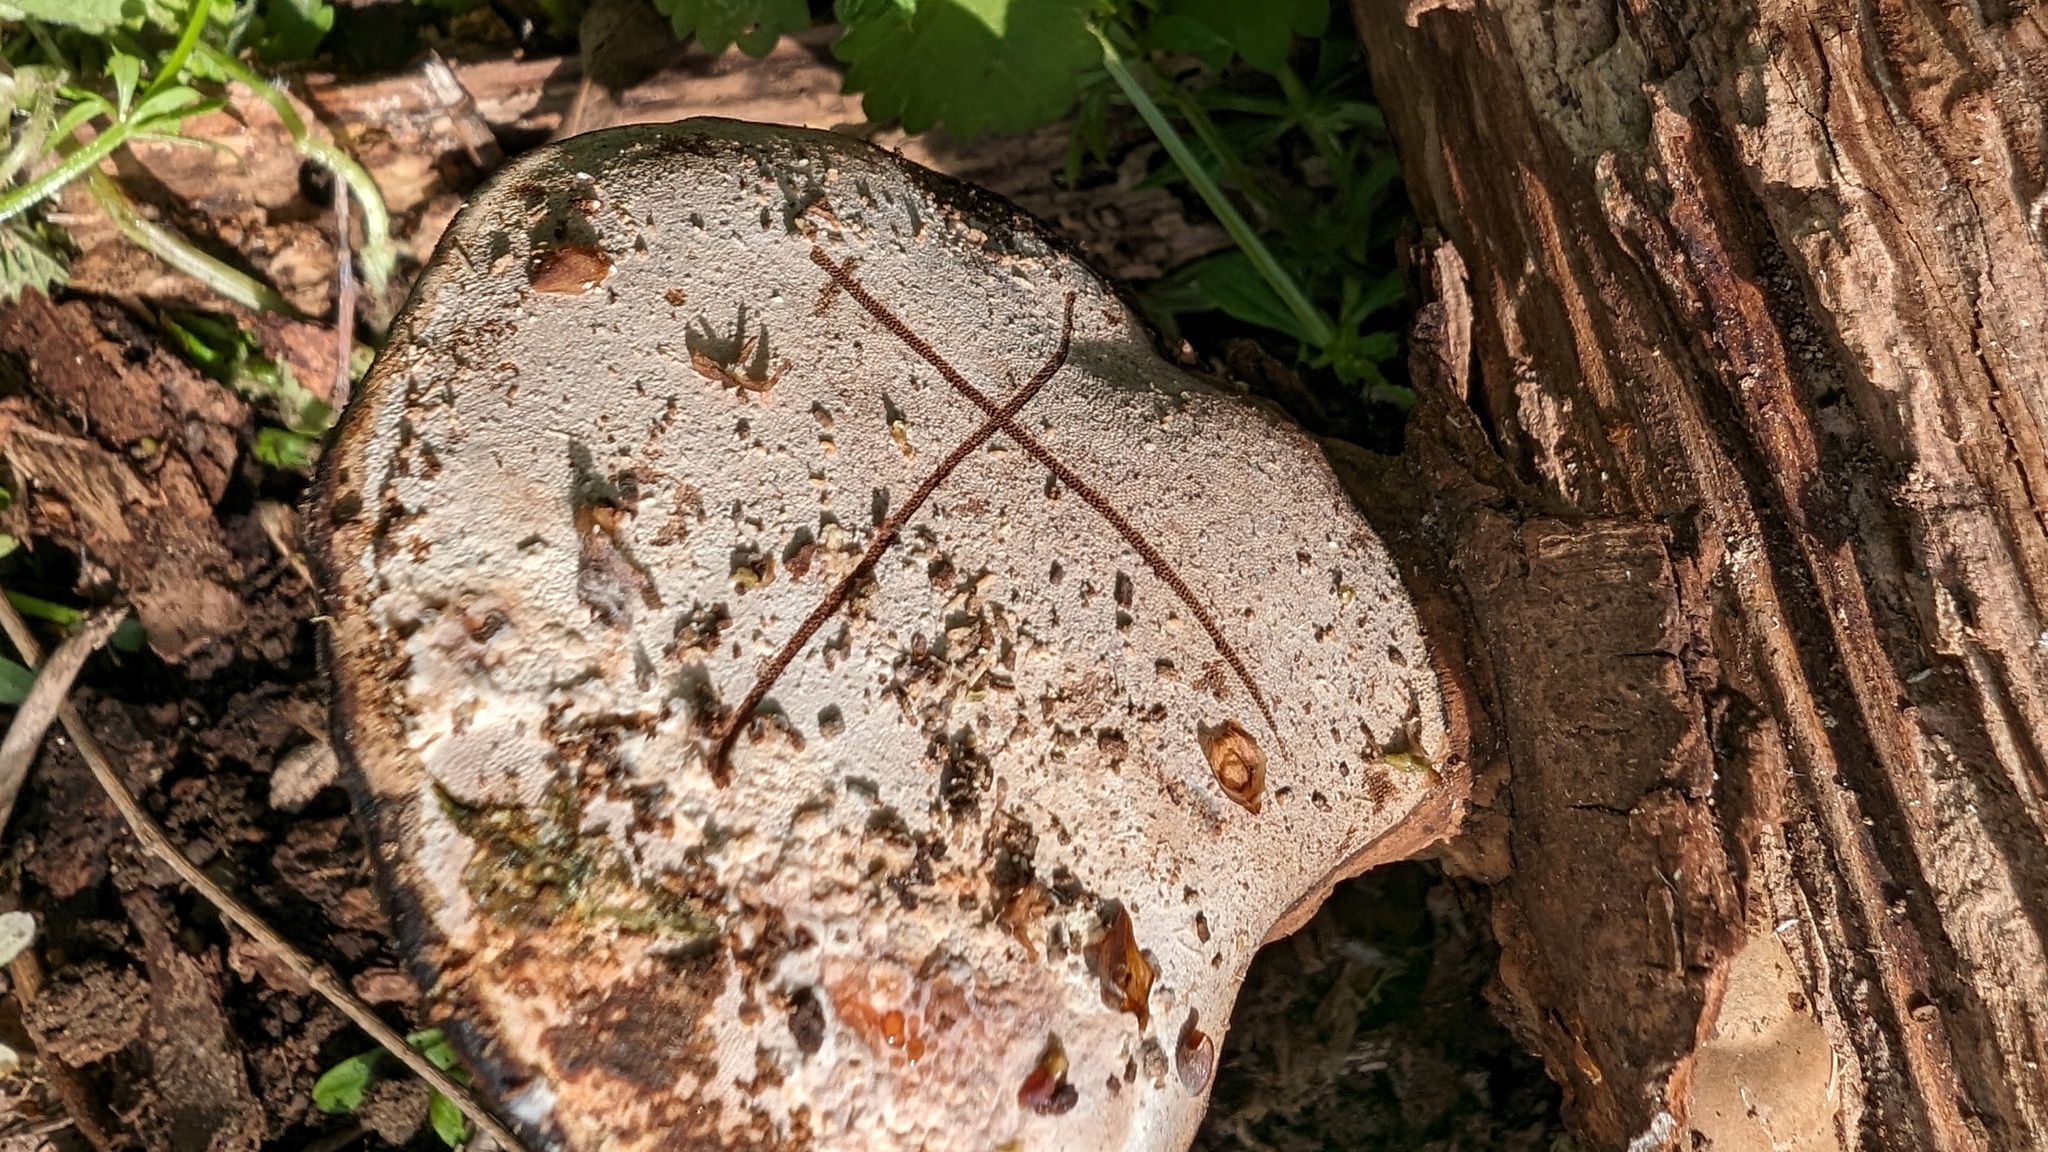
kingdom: Fungi
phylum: Basidiomycota
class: Agaricomycetes
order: Polyporales
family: Polyporaceae
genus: Ganoderma
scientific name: Ganoderma applanatum
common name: Artist's bracket
